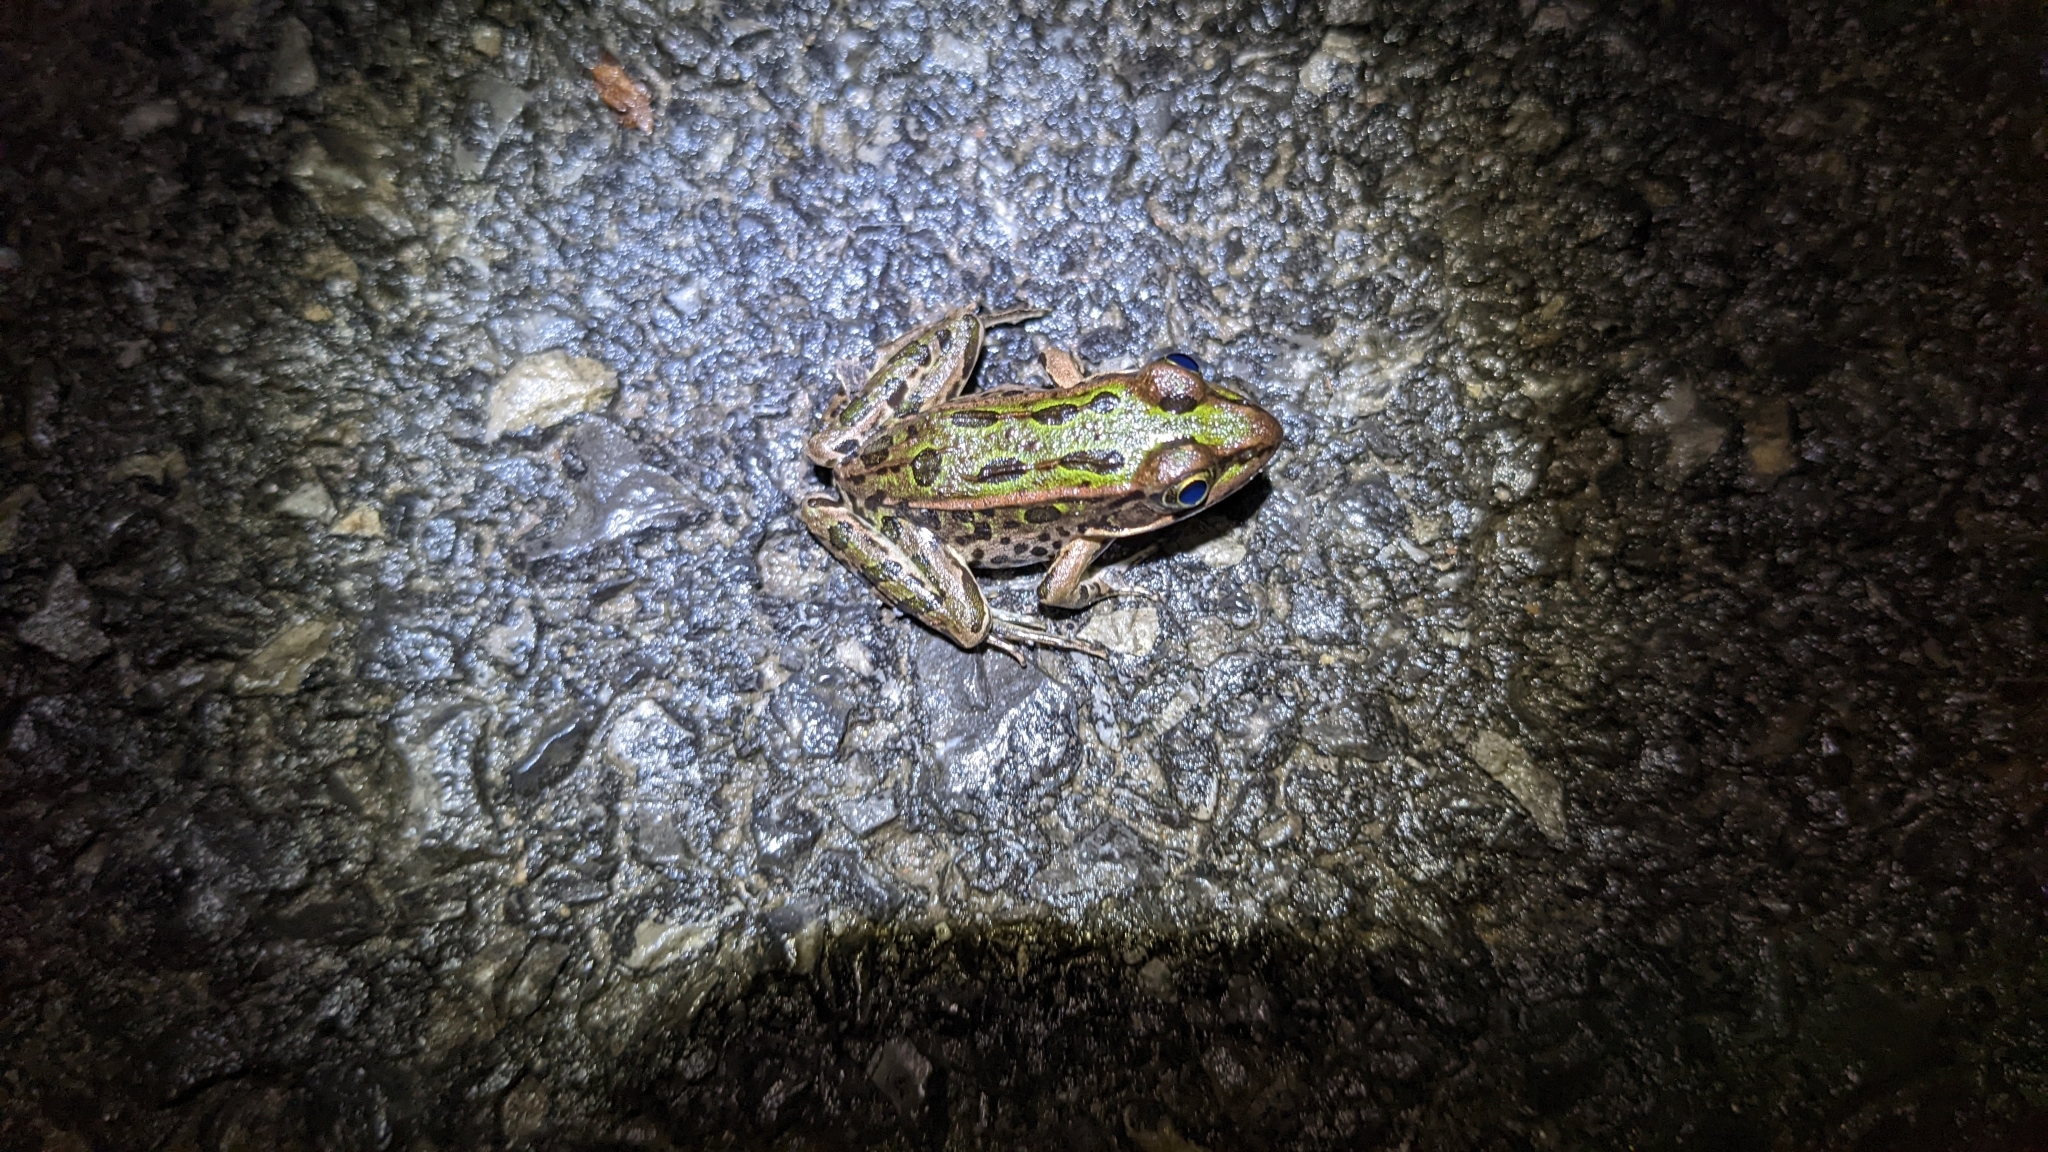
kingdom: Animalia
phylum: Chordata
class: Amphibia
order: Anura
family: Ranidae
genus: Lithobates
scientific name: Lithobates pipiens
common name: Northern leopard frog
